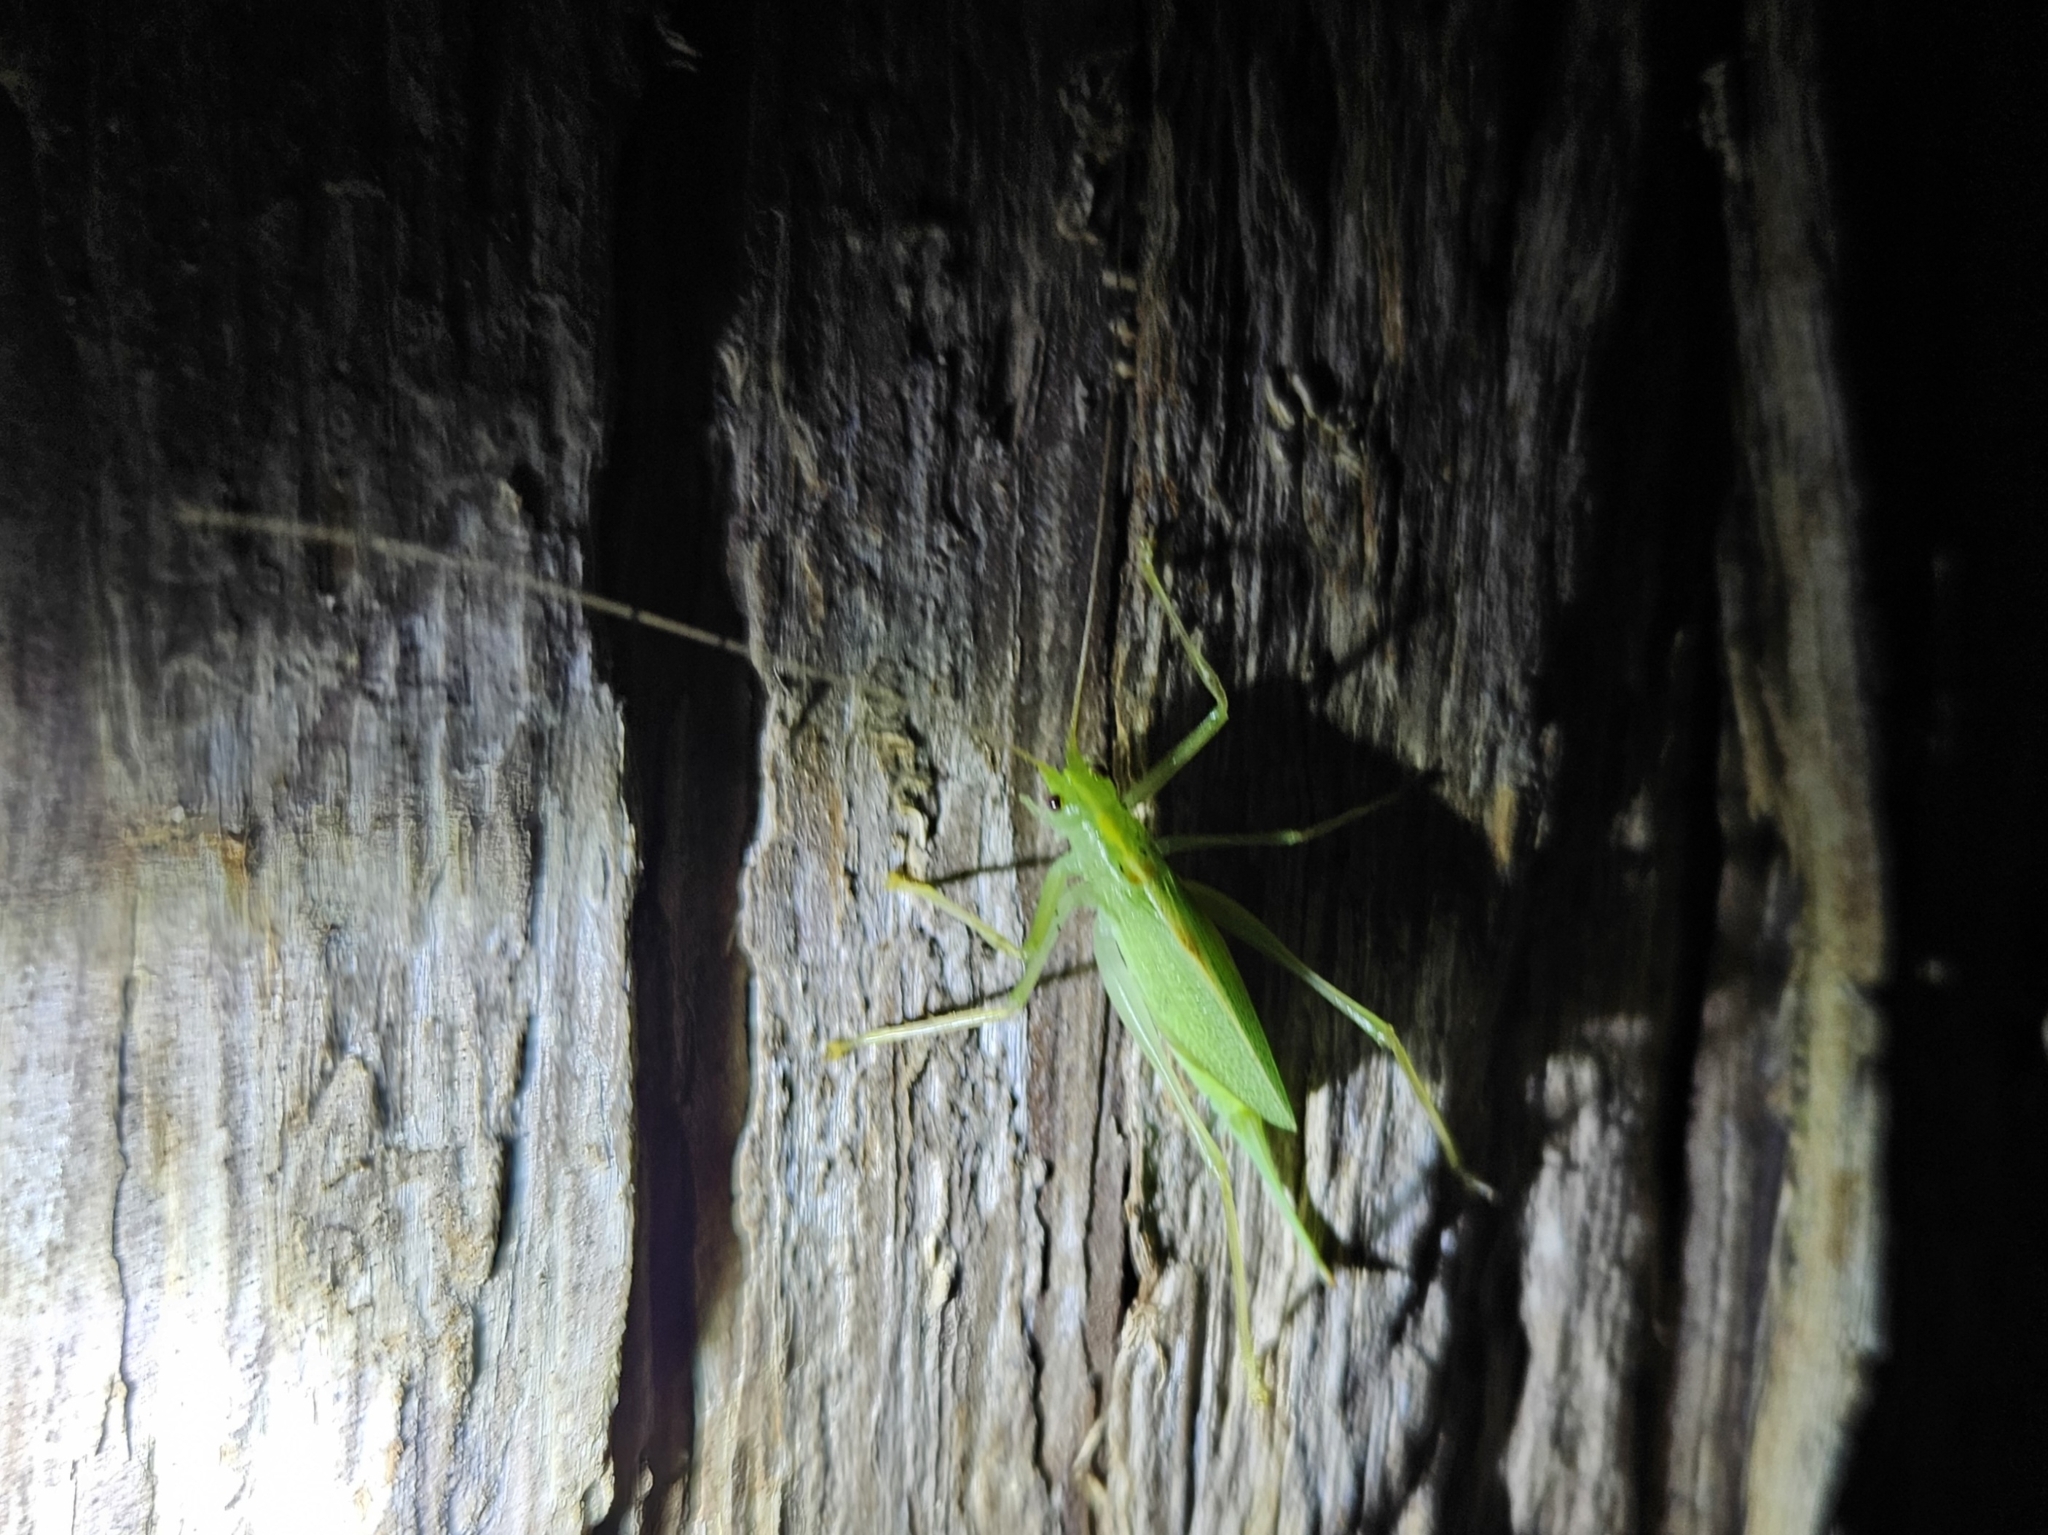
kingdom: Animalia
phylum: Arthropoda
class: Insecta
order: Orthoptera
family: Tettigoniidae
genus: Meconema
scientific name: Meconema thalassinum
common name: Oak bush-cricket
